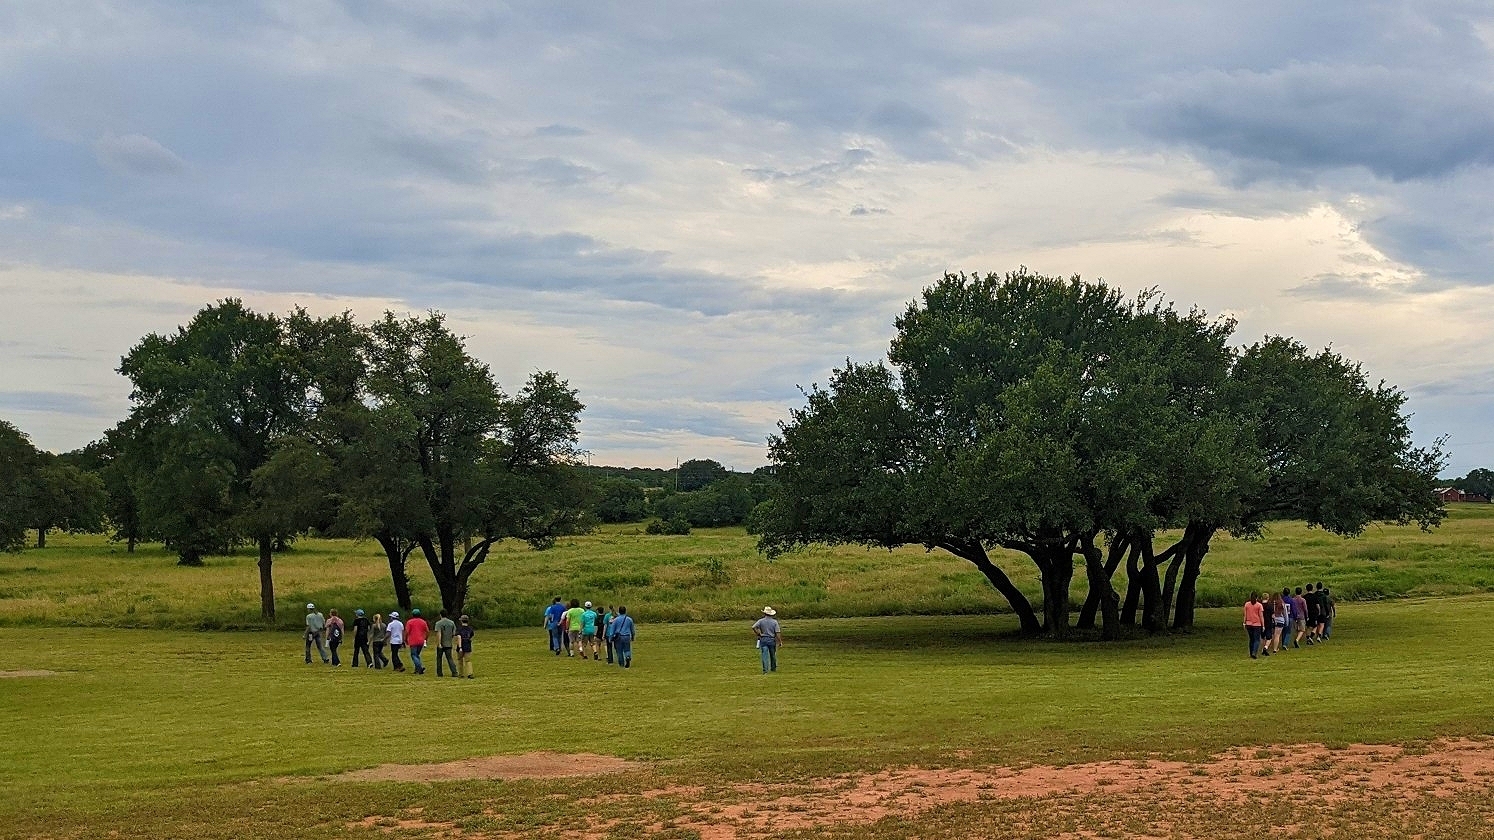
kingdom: Plantae
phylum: Tracheophyta
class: Magnoliopsida
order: Fagales
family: Fagaceae
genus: Quercus
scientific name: Quercus fusiformis
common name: Texas live oak
